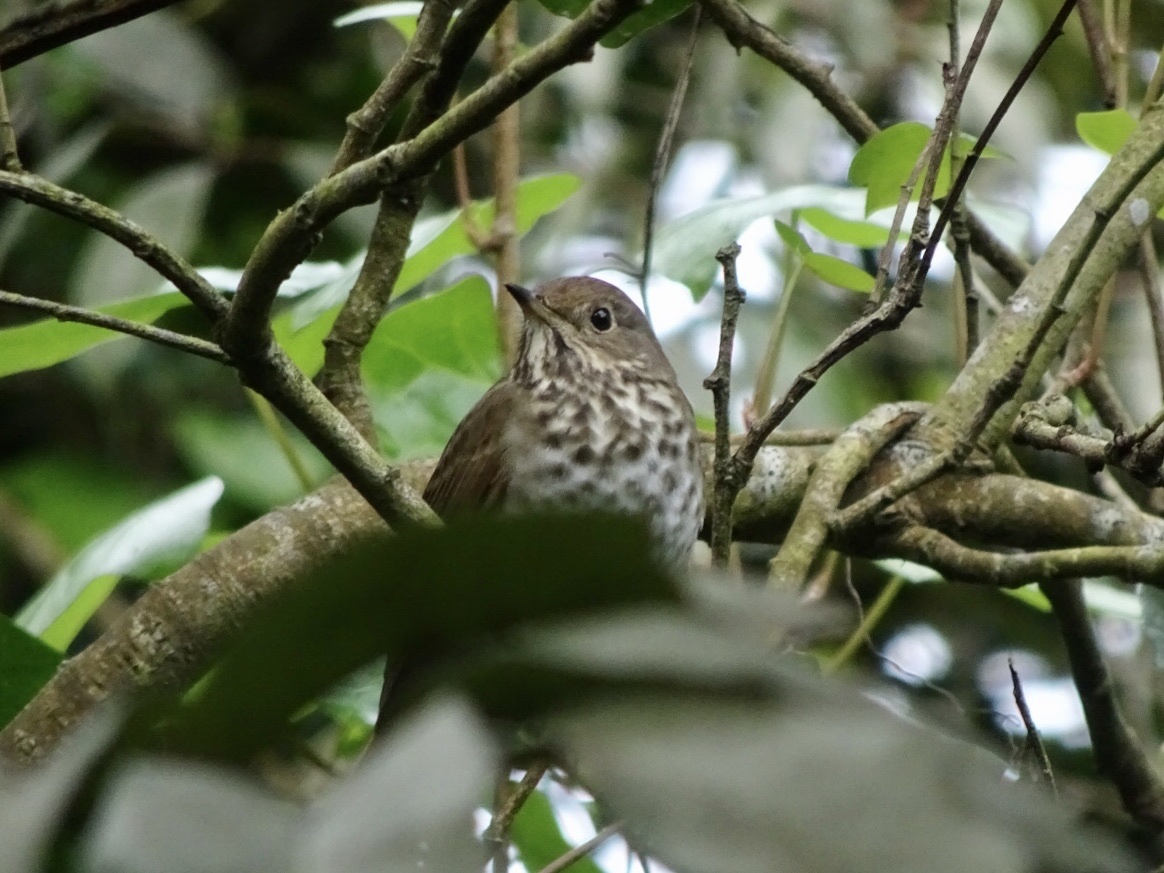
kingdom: Animalia
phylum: Chordata
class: Aves
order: Passeriformes
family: Turdidae
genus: Catharus
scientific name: Catharus guttatus
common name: Hermit thrush
